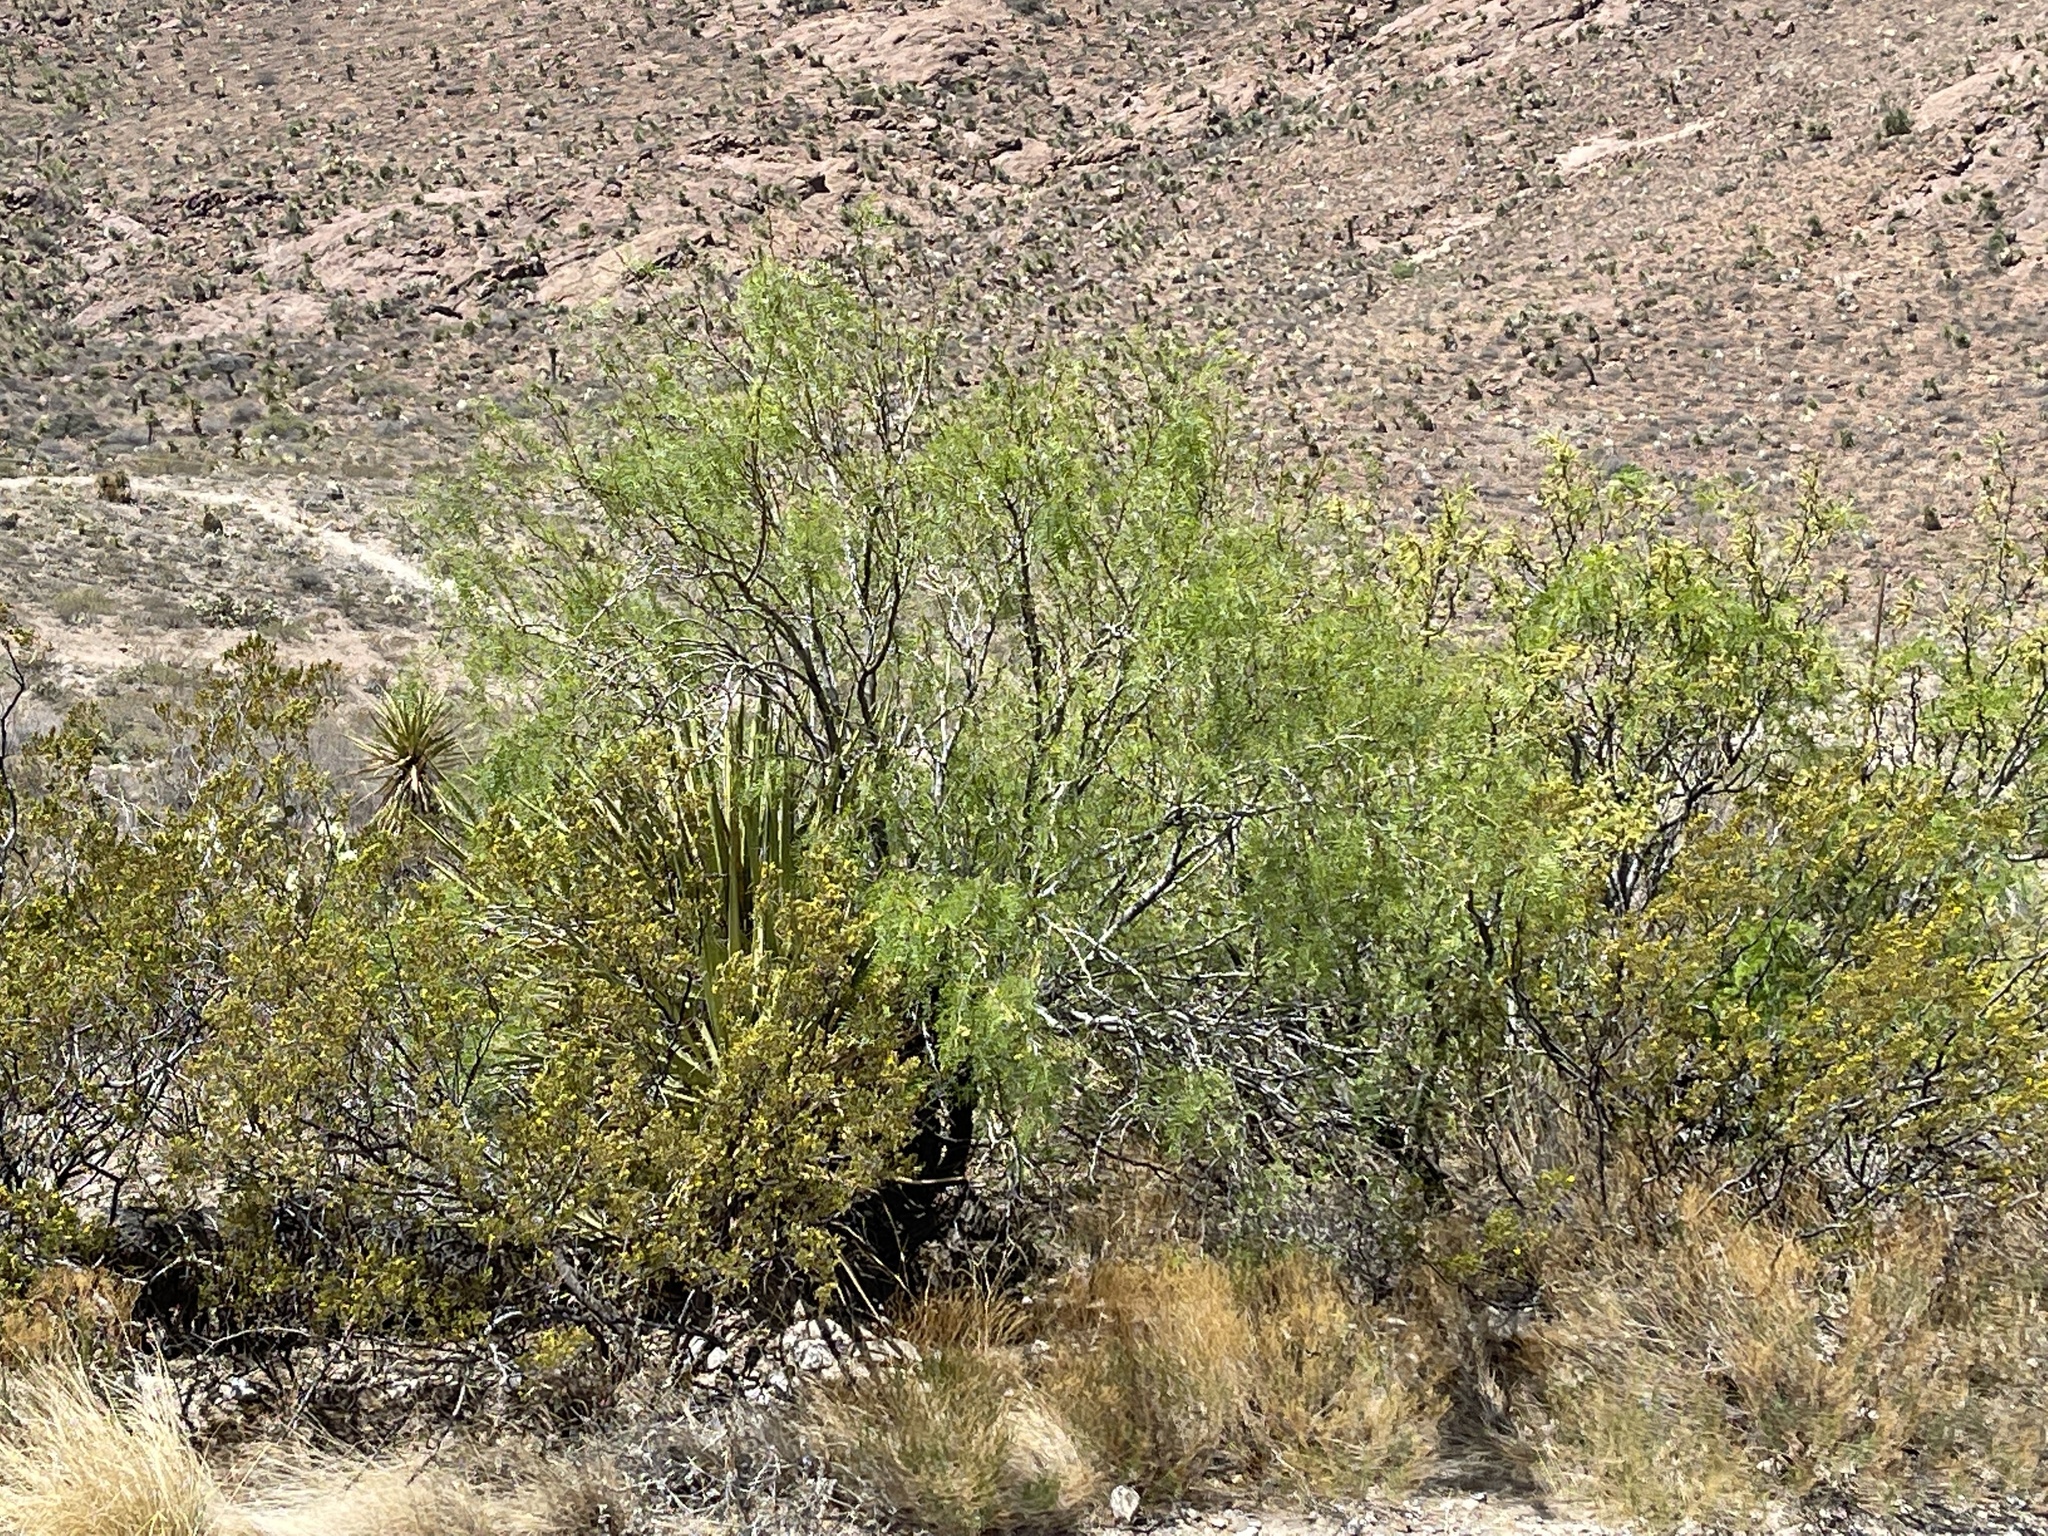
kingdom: Plantae
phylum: Tracheophyta
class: Magnoliopsida
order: Fabales
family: Fabaceae
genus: Prosopis
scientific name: Prosopis glandulosa
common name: Honey mesquite
